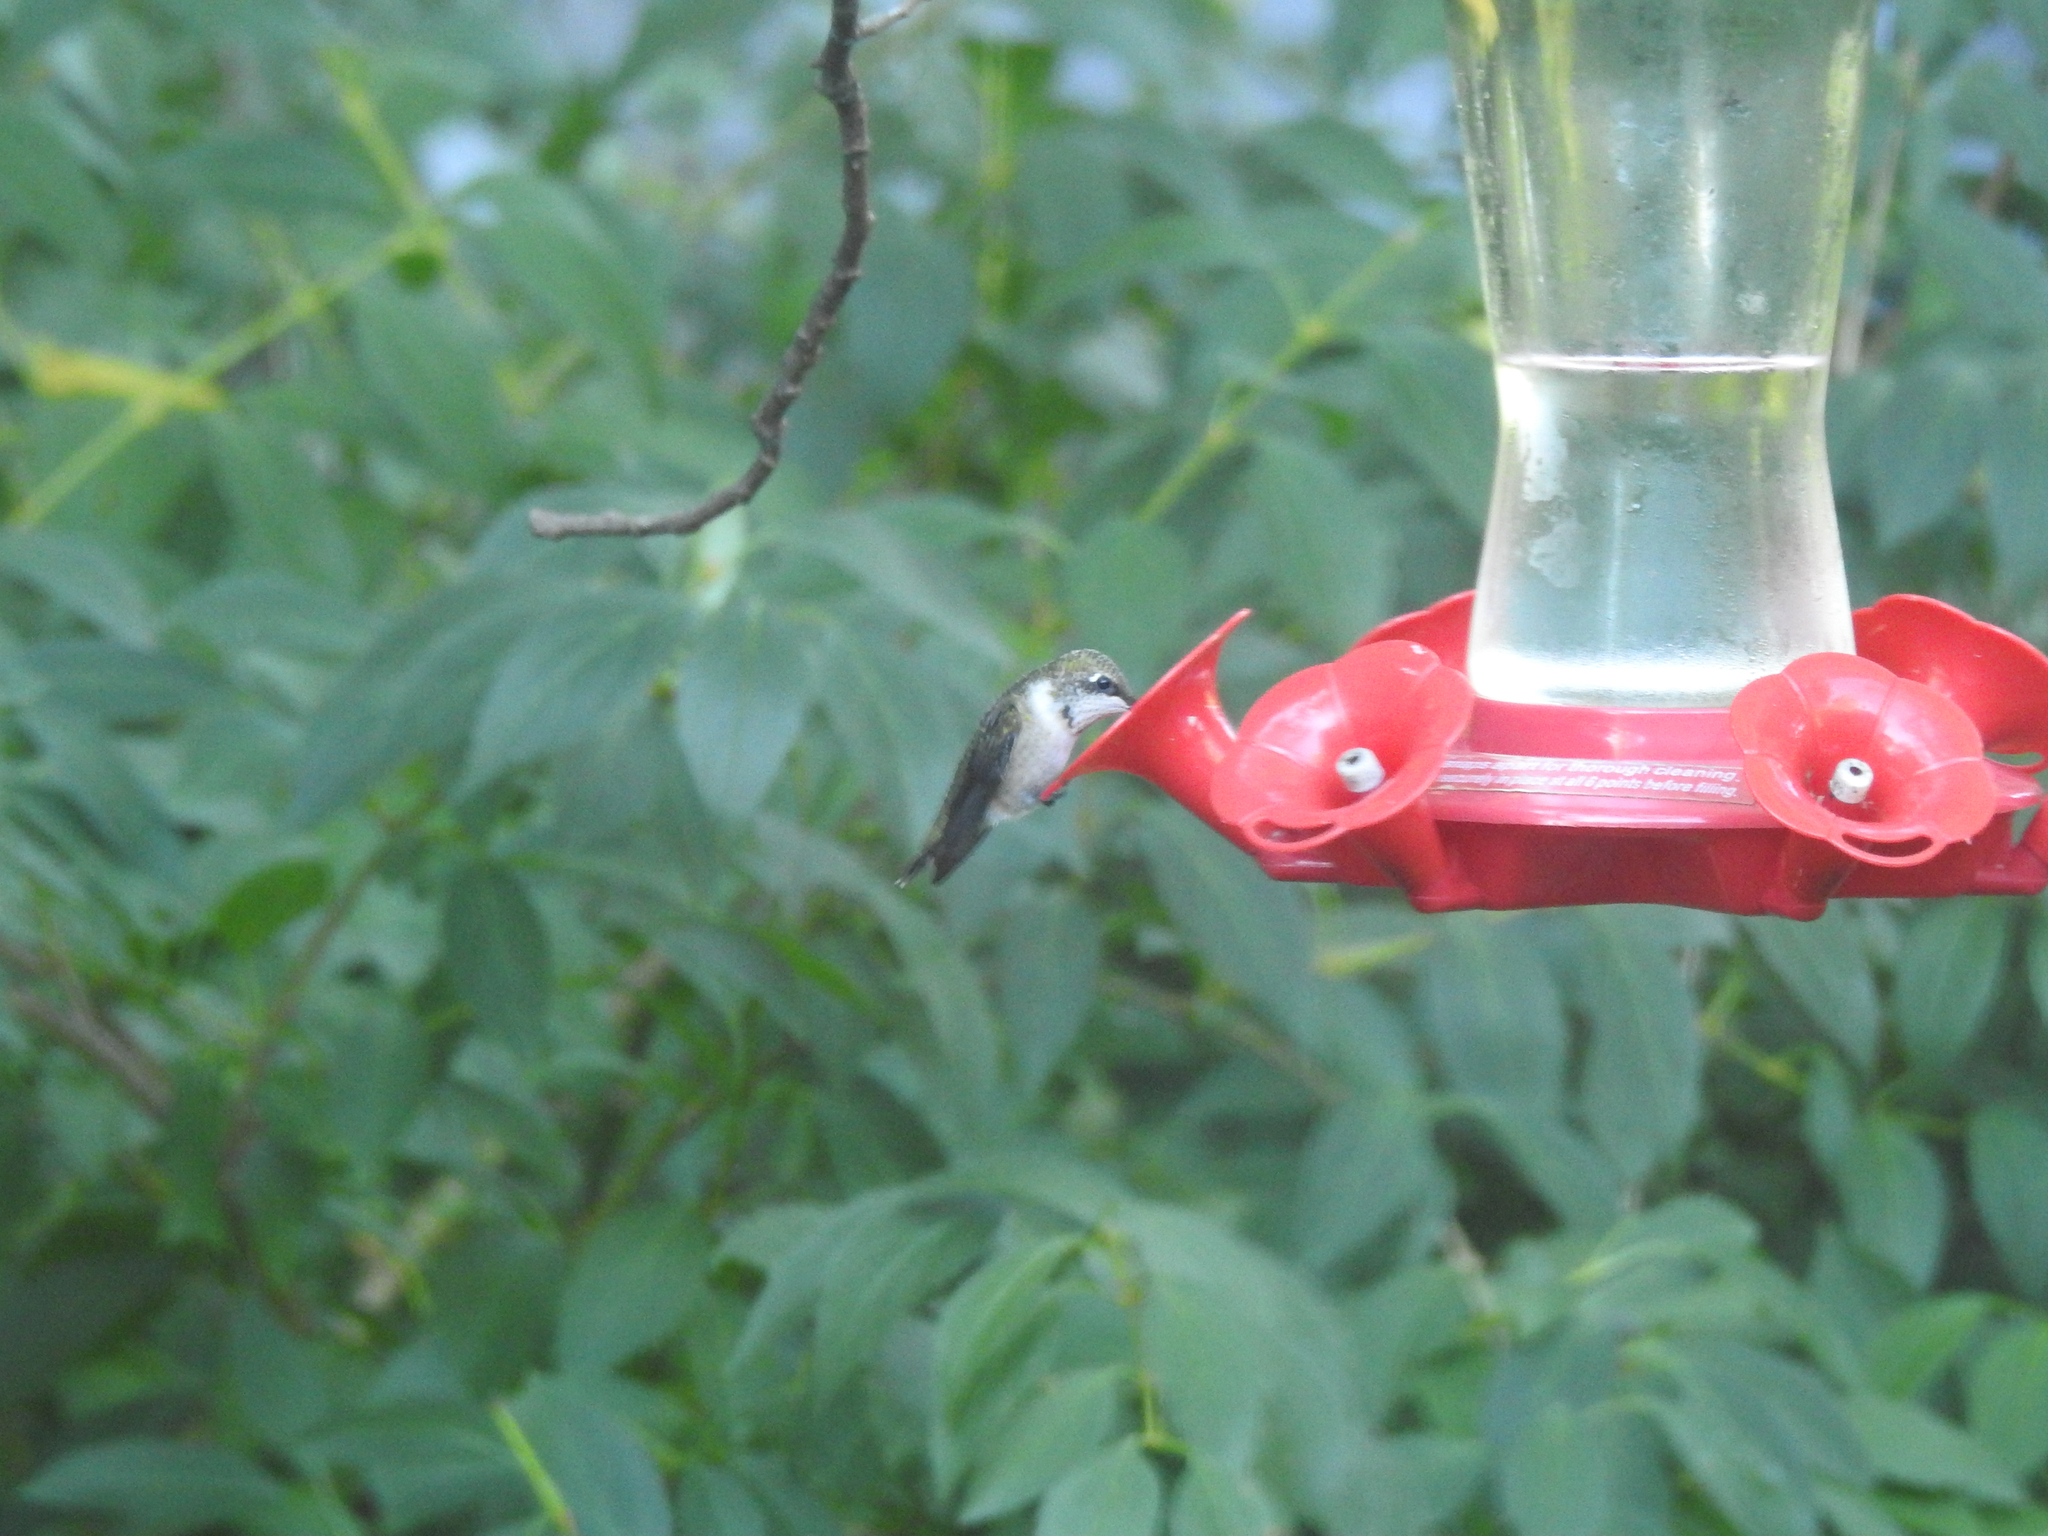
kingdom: Animalia
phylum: Chordata
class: Aves
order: Apodiformes
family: Trochilidae
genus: Archilochus
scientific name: Archilochus colubris
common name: Ruby-throated hummingbird
